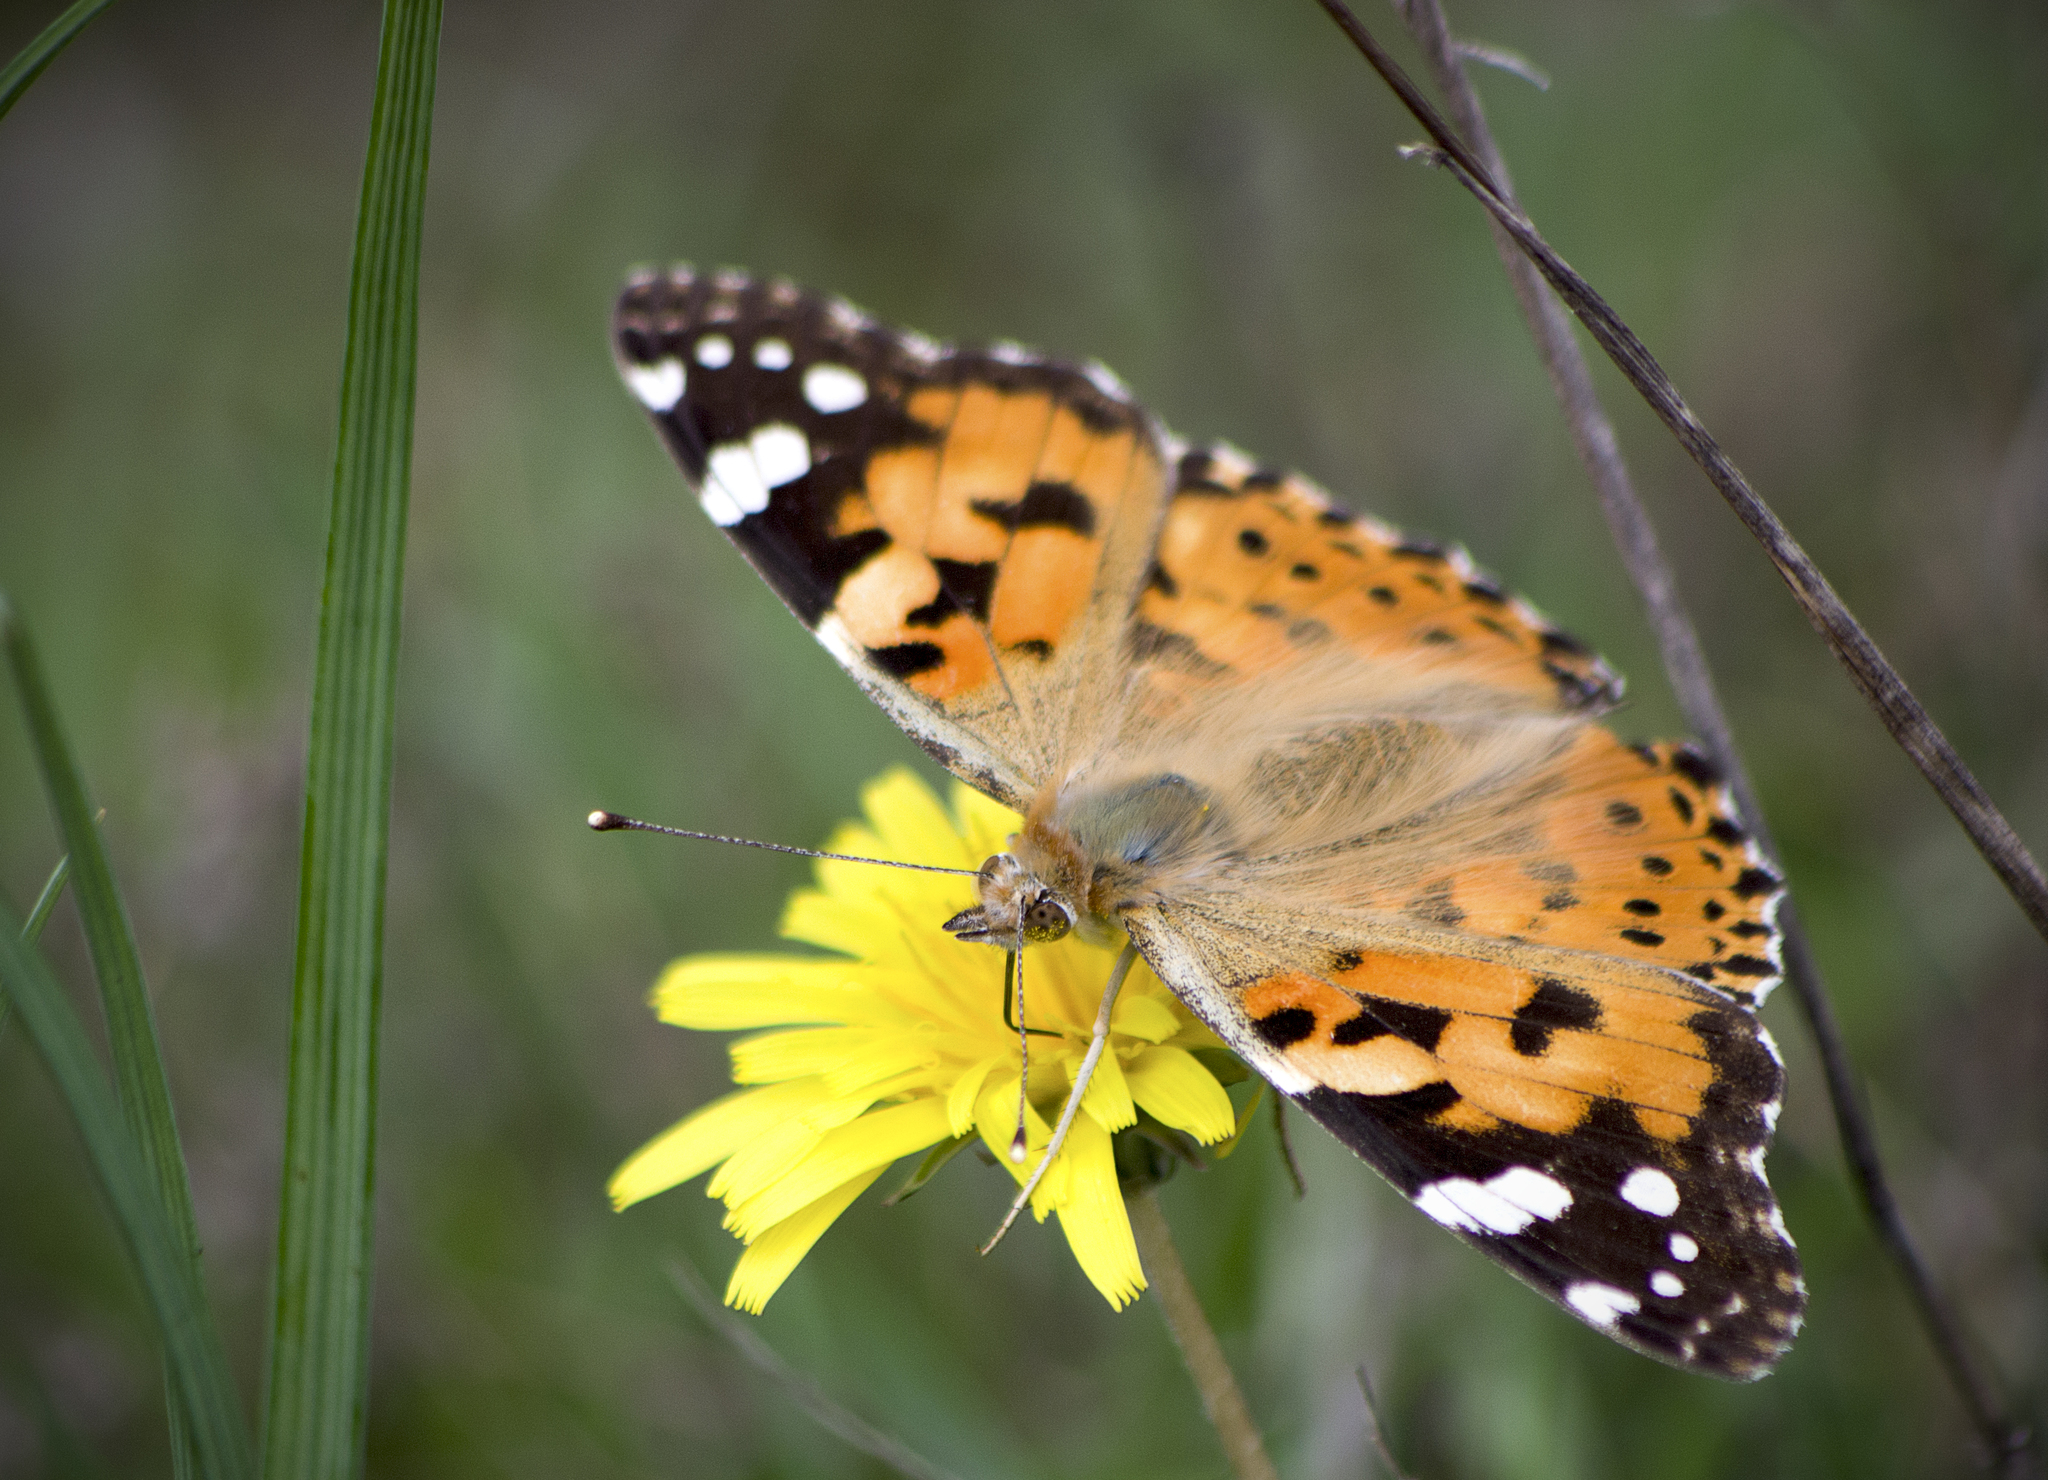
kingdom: Animalia
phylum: Arthropoda
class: Insecta
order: Lepidoptera
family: Nymphalidae
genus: Vanessa
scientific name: Vanessa cardui
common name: Painted lady
